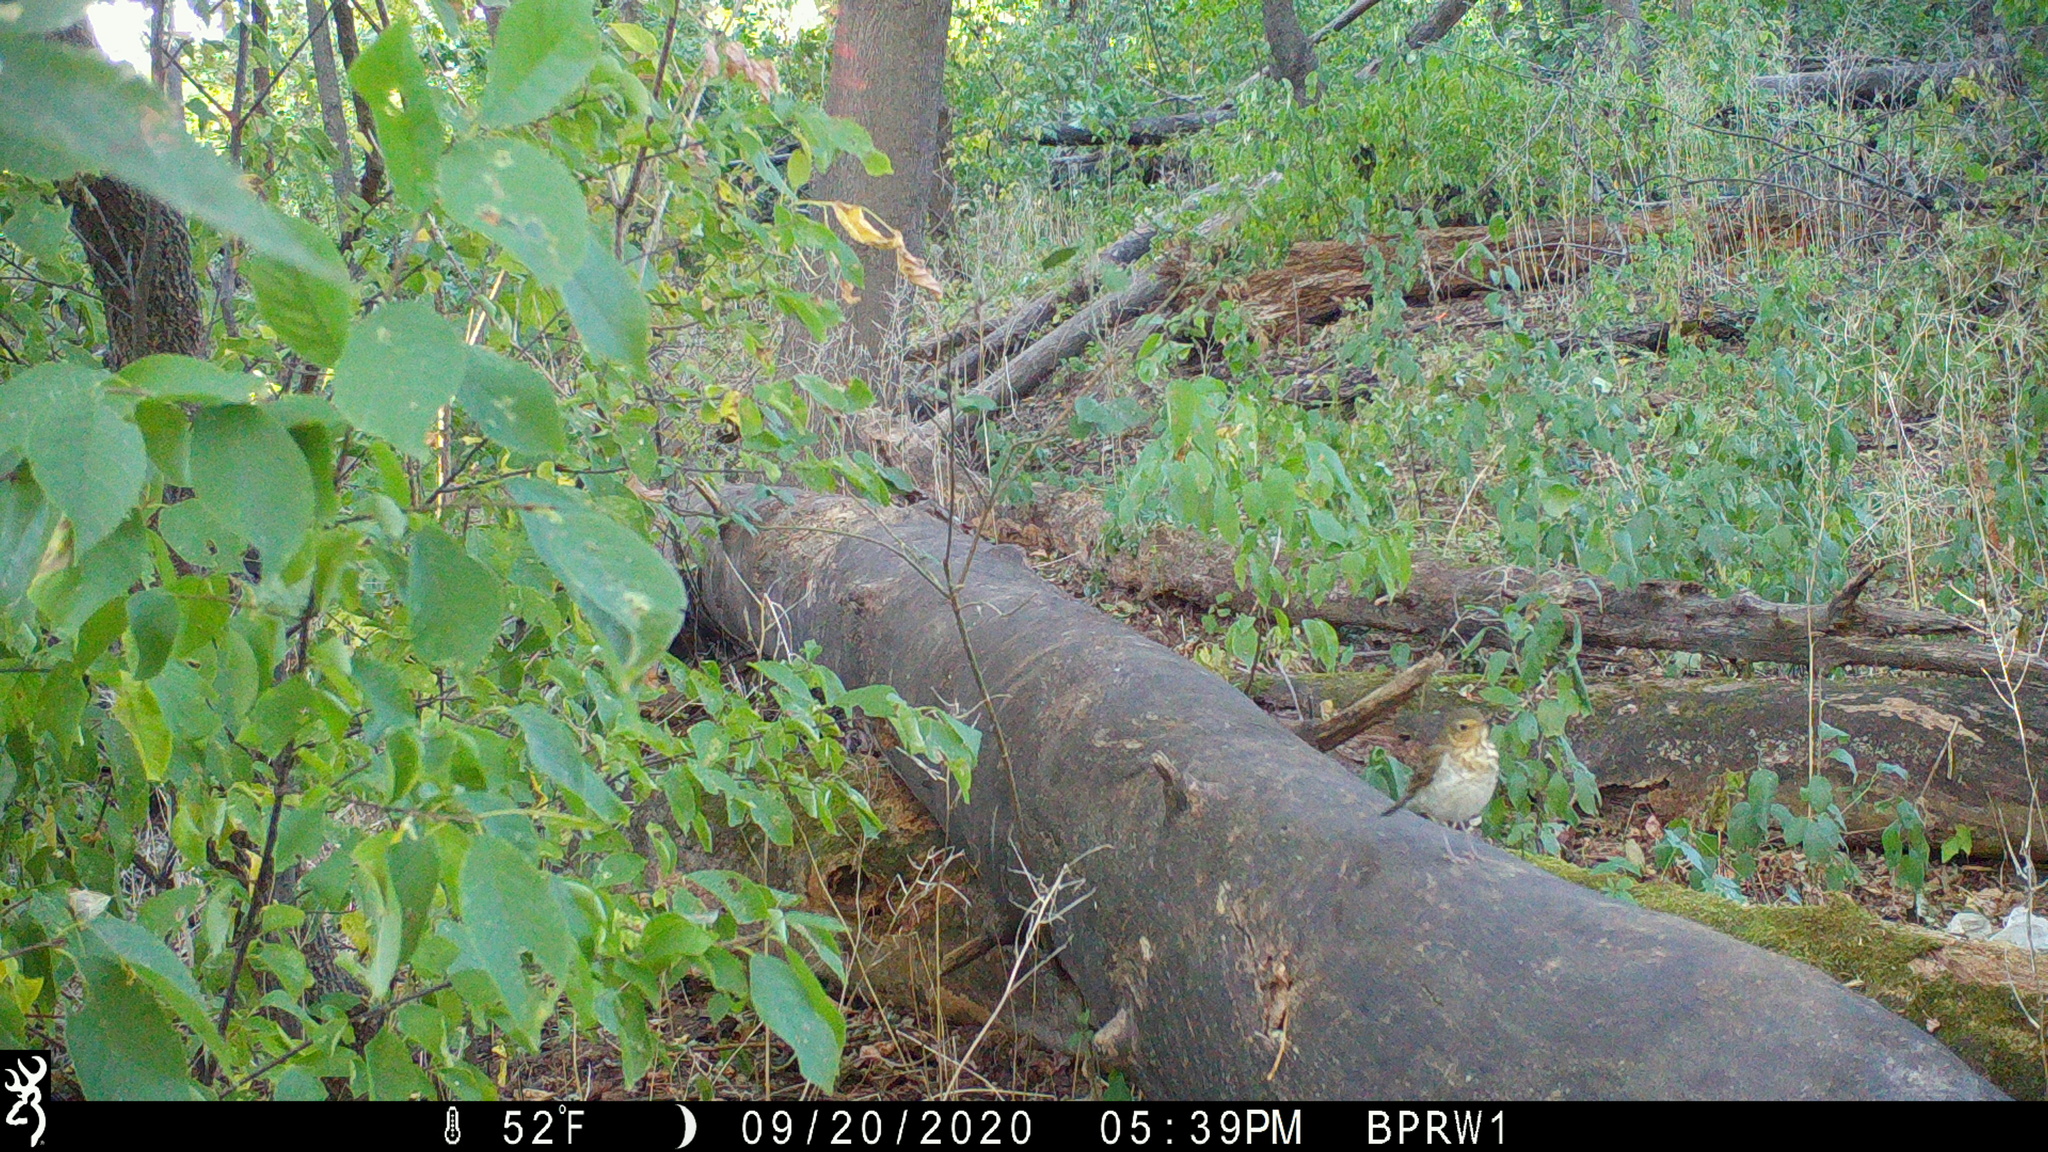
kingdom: Animalia
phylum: Chordata
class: Aves
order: Passeriformes
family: Turdidae
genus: Catharus
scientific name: Catharus ustulatus
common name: Swainson's thrush
